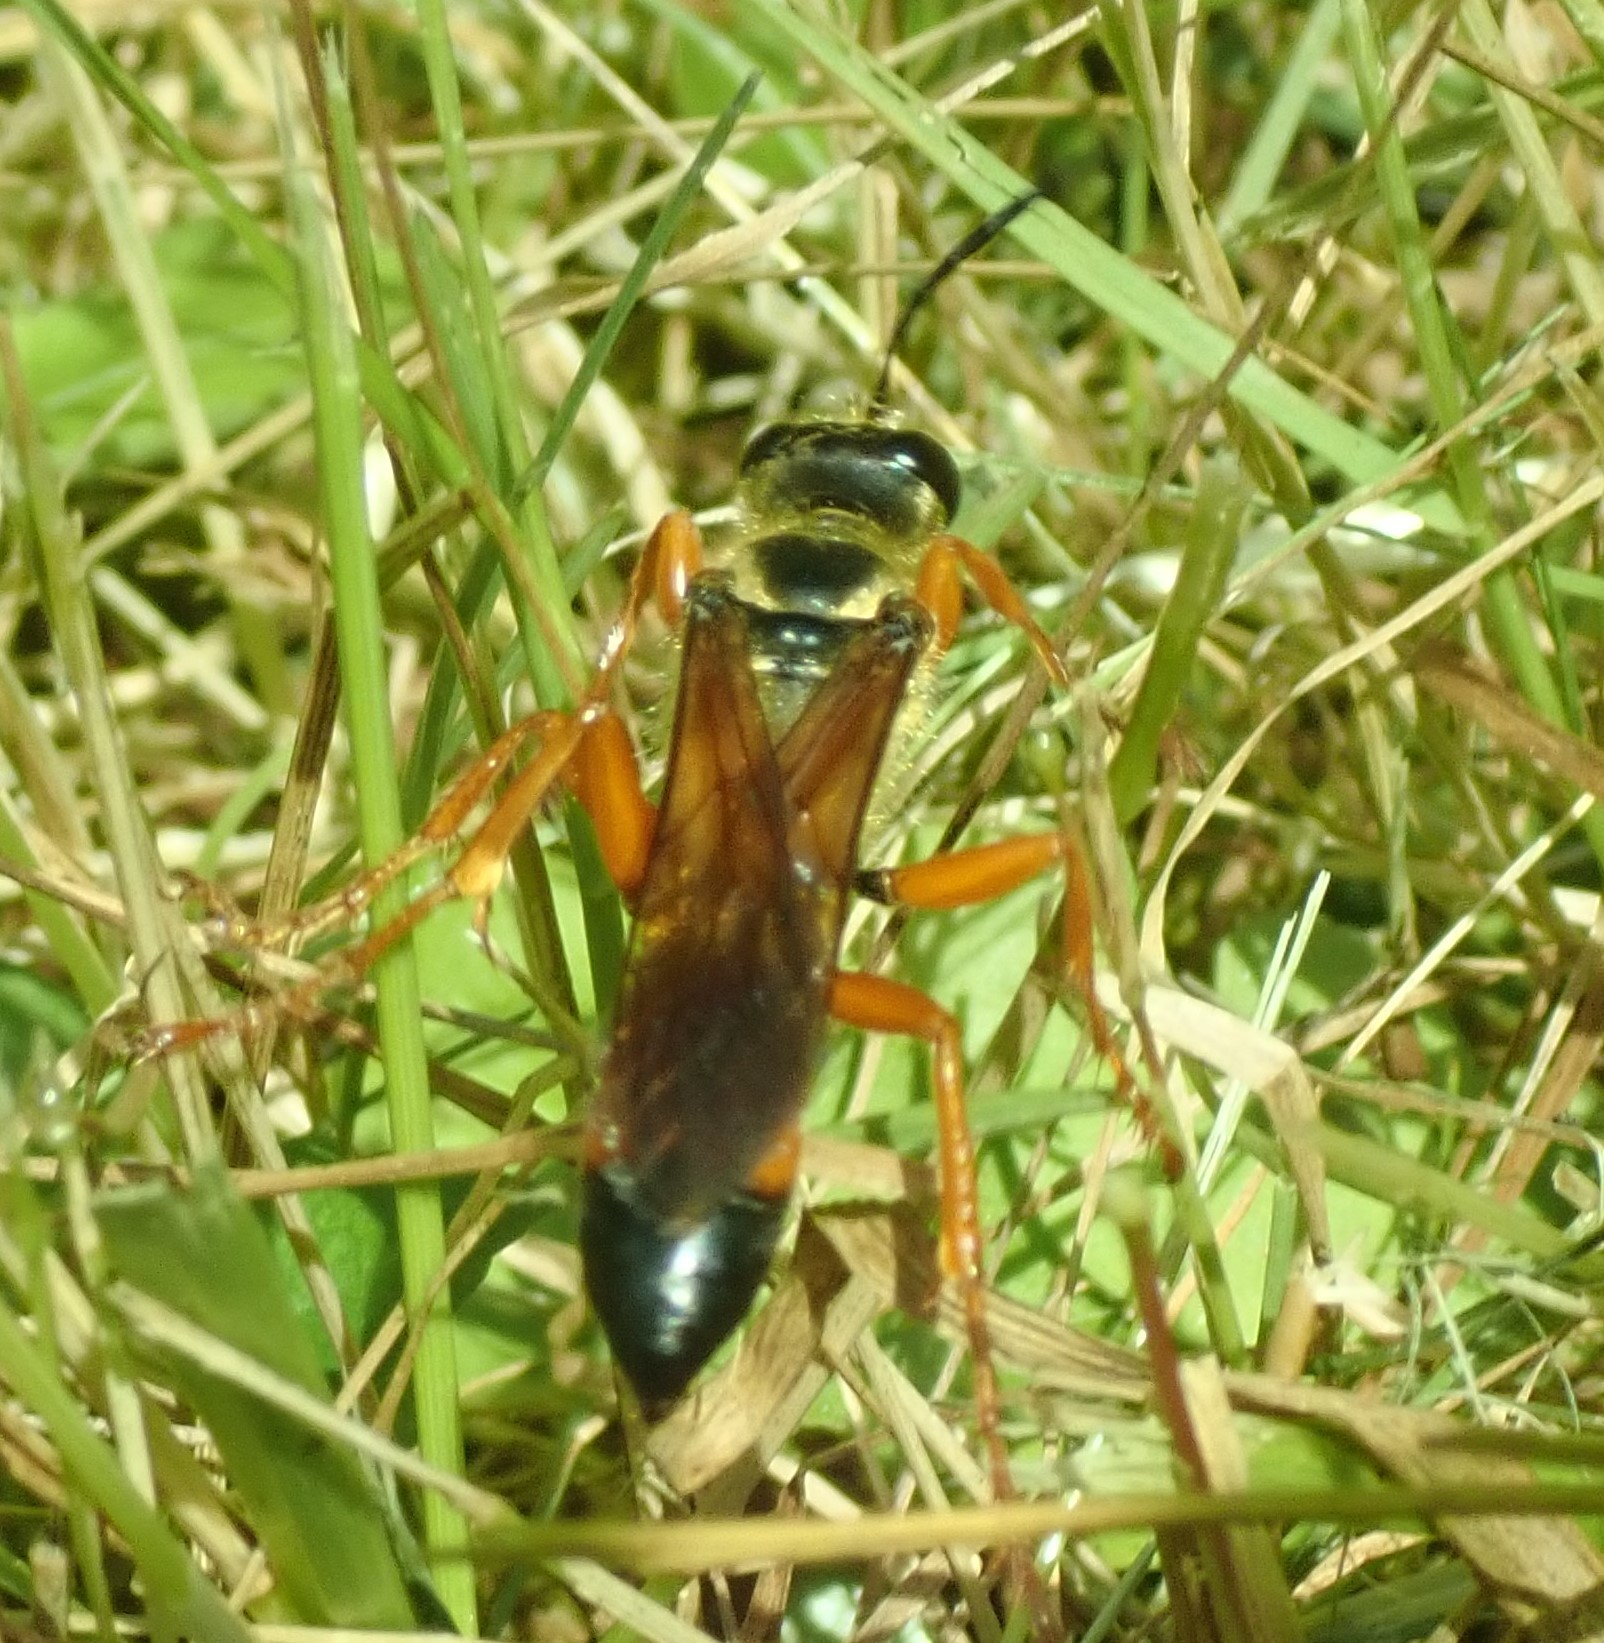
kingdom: Animalia
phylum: Arthropoda
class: Insecta
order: Hymenoptera
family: Sphecidae
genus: Sphex
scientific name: Sphex ichneumoneus
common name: Great golden digger wasp
